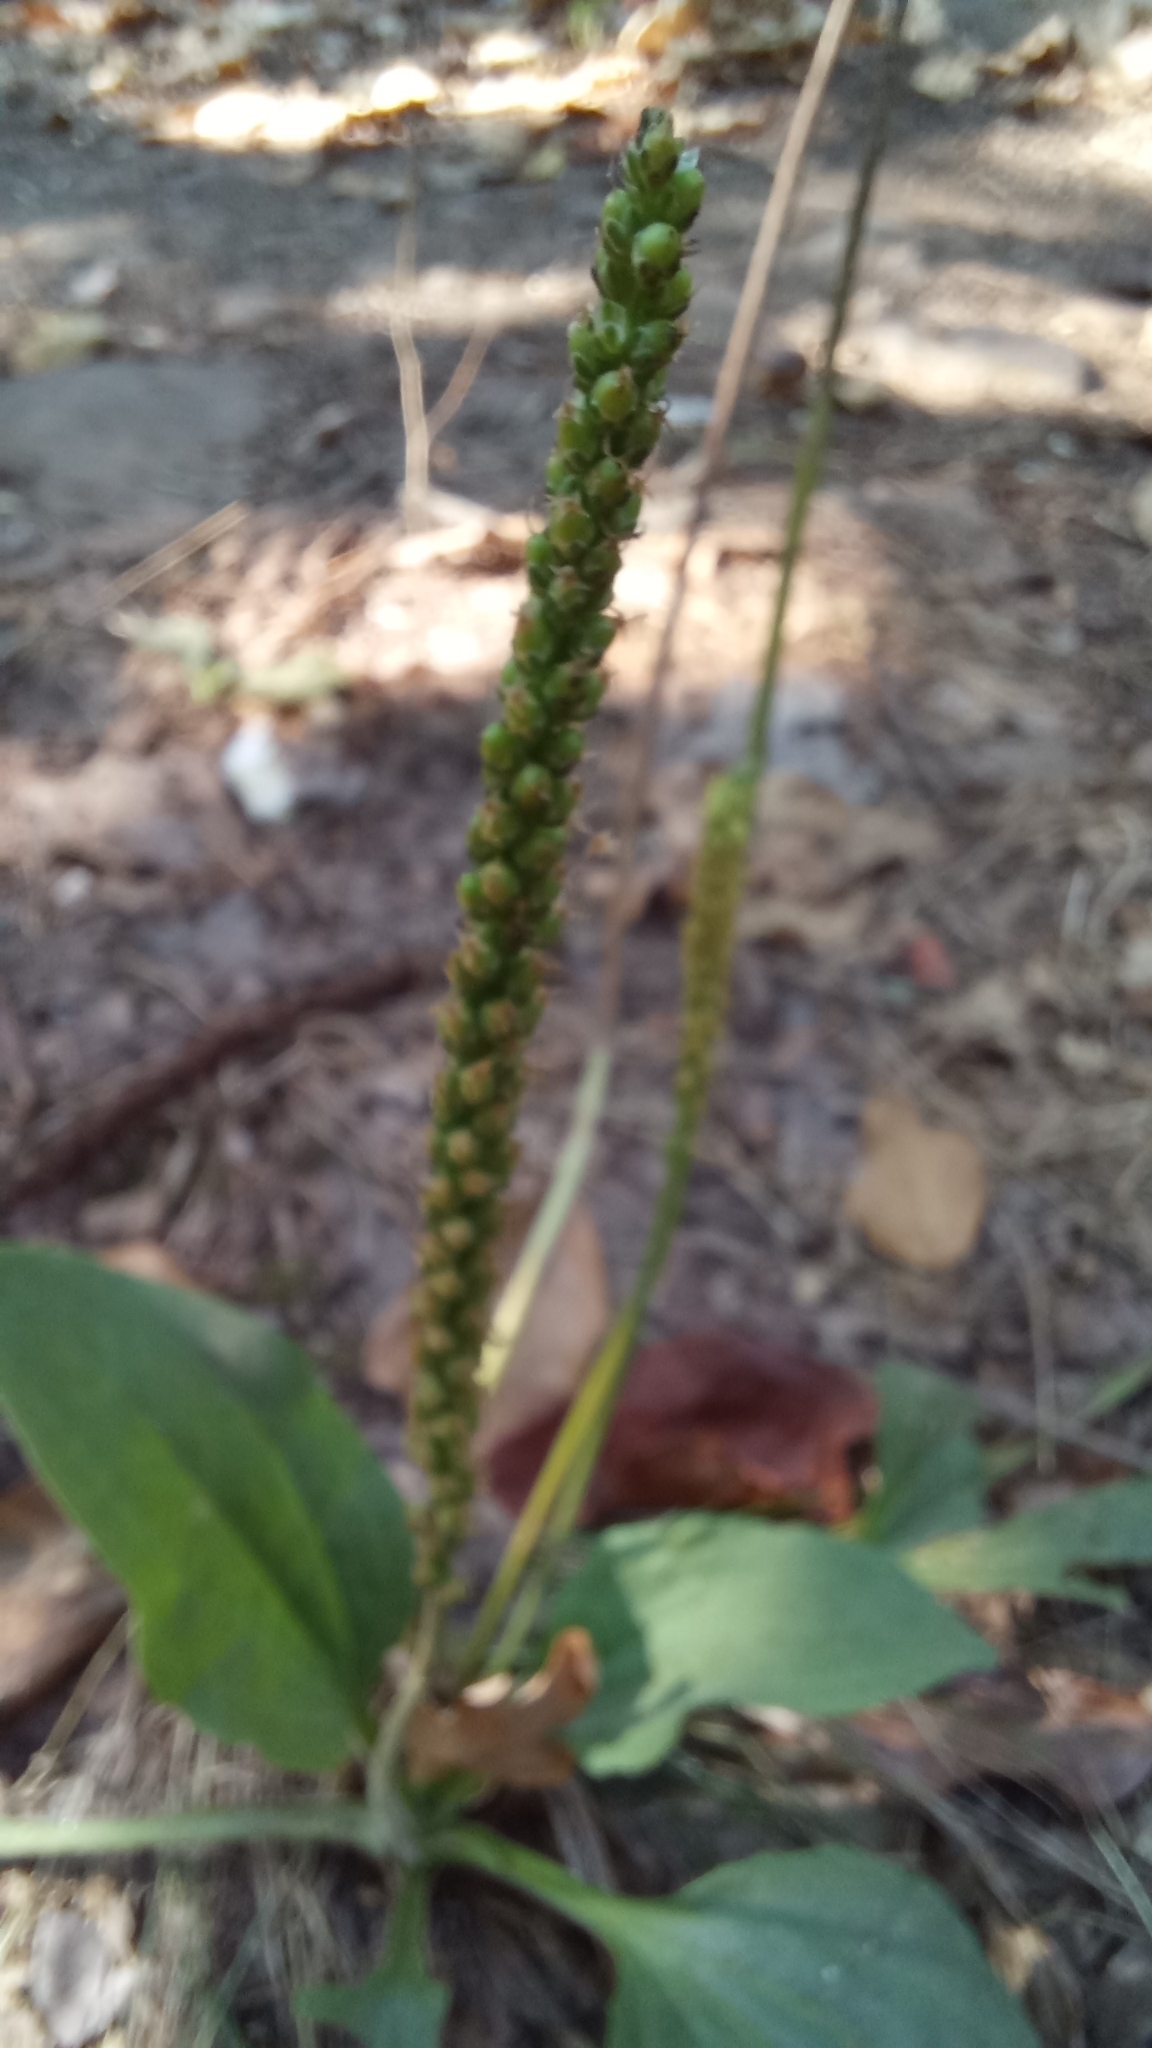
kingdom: Plantae
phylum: Tracheophyta
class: Magnoliopsida
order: Lamiales
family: Plantaginaceae
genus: Plantago
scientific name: Plantago major
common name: Common plantain
